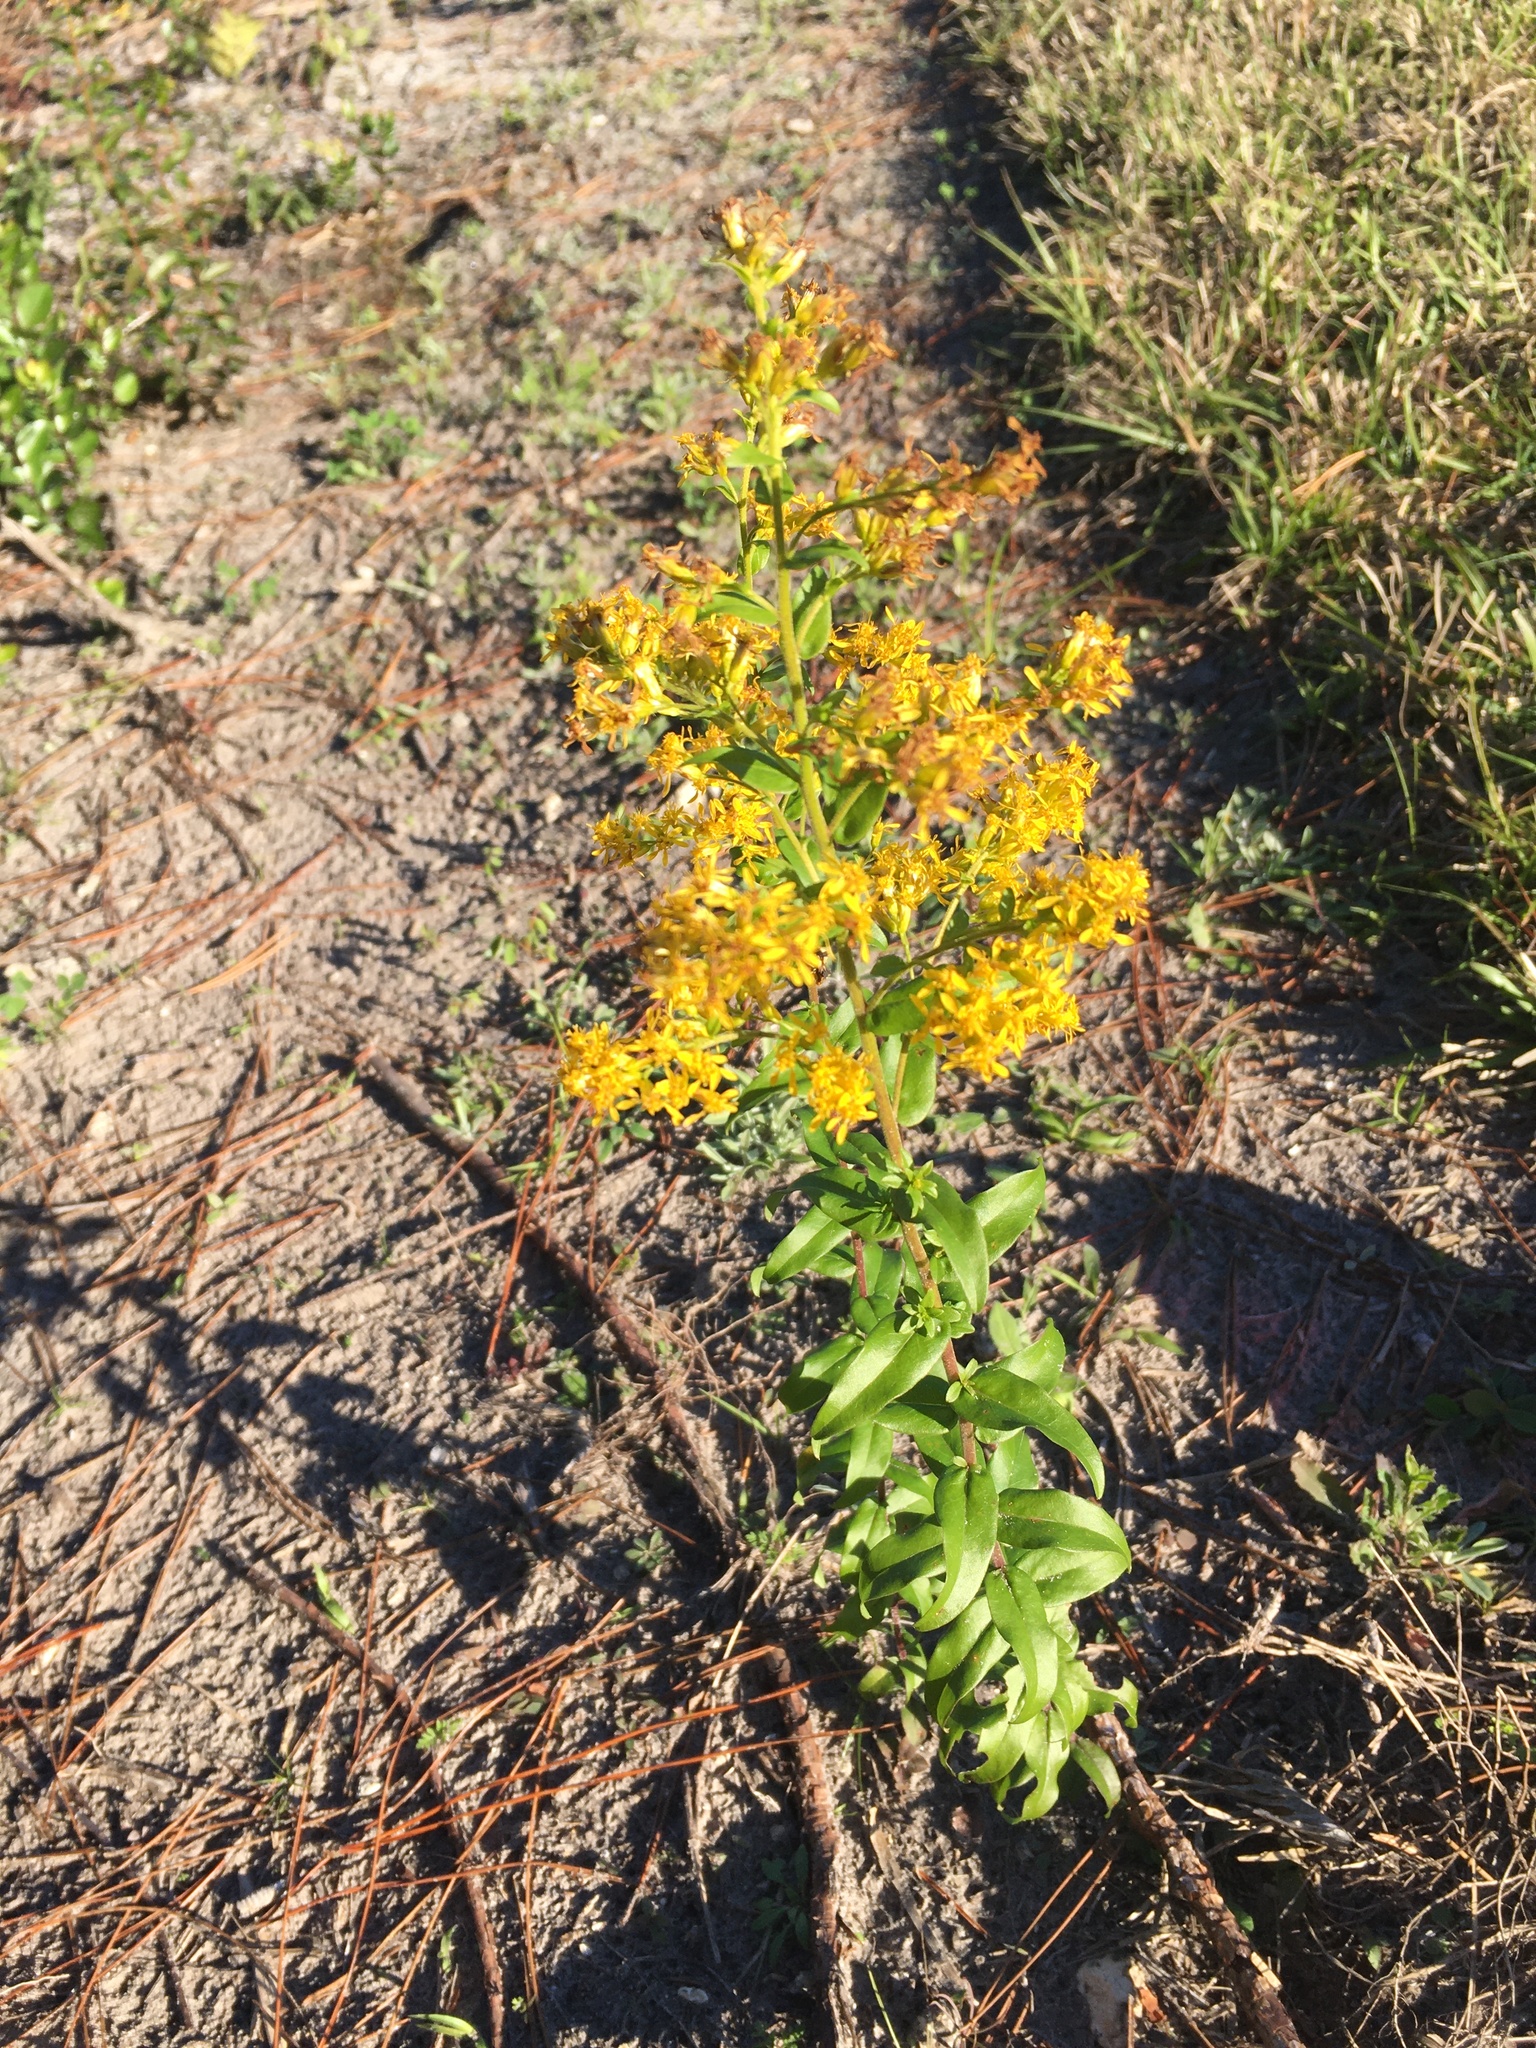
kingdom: Plantae
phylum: Tracheophyta
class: Magnoliopsida
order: Asterales
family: Asteraceae
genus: Solidago
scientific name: Solidago chapmanii
